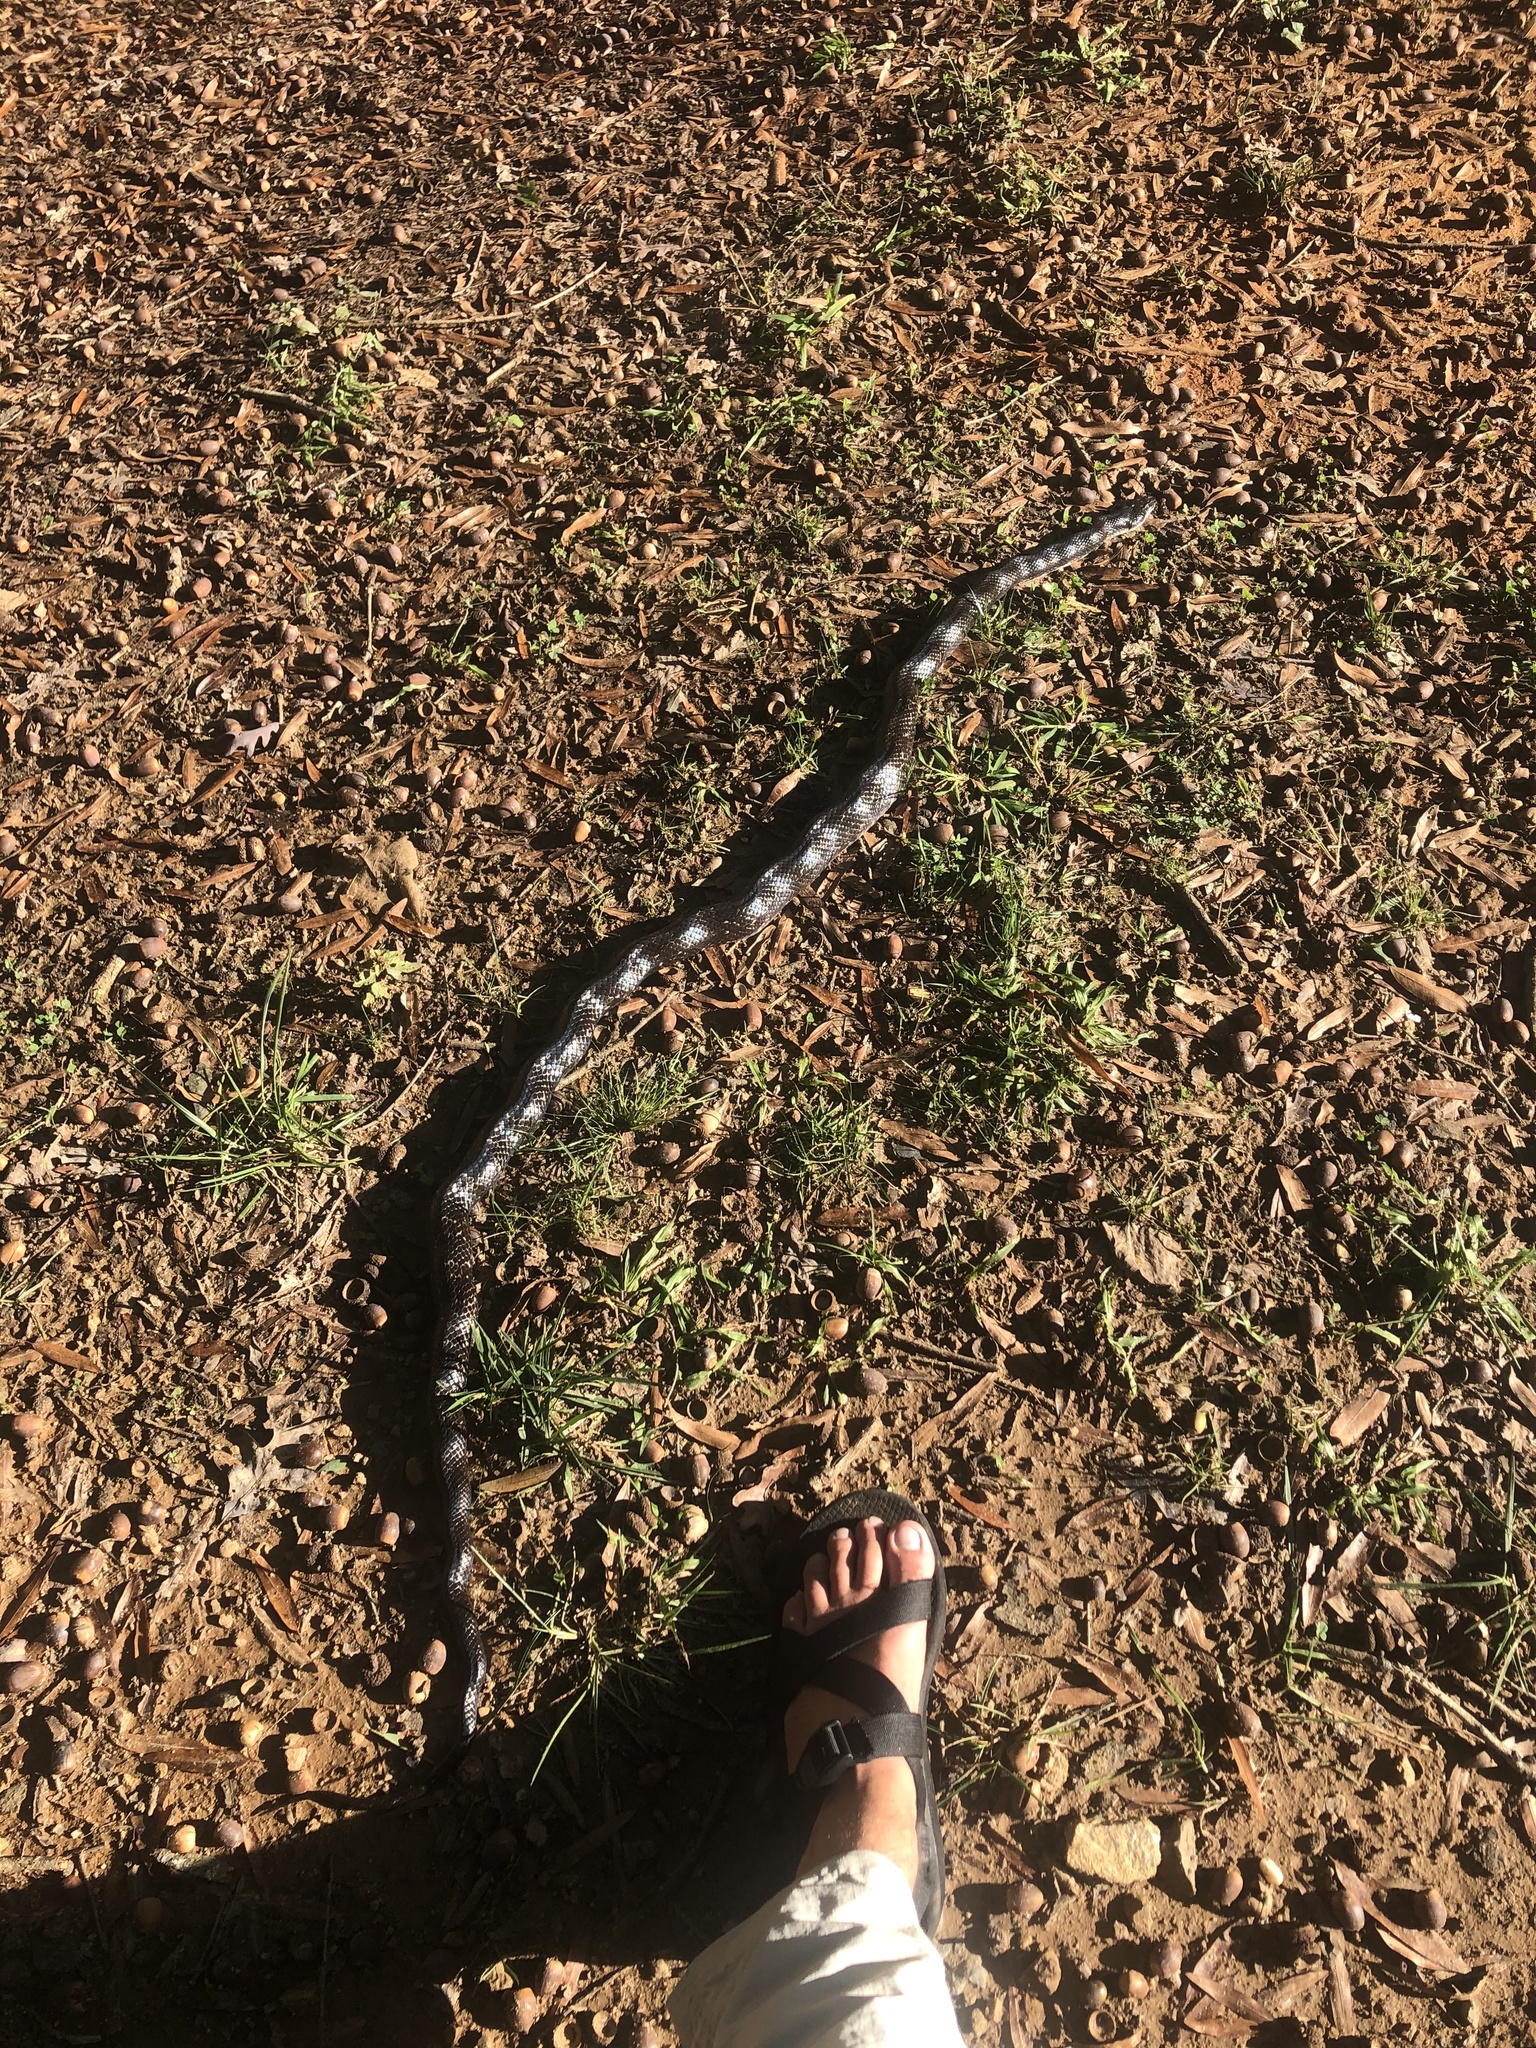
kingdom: Animalia
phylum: Chordata
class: Squamata
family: Colubridae
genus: Pantherophis
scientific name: Pantherophis alleghaniensis
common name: Eastern rat snake
